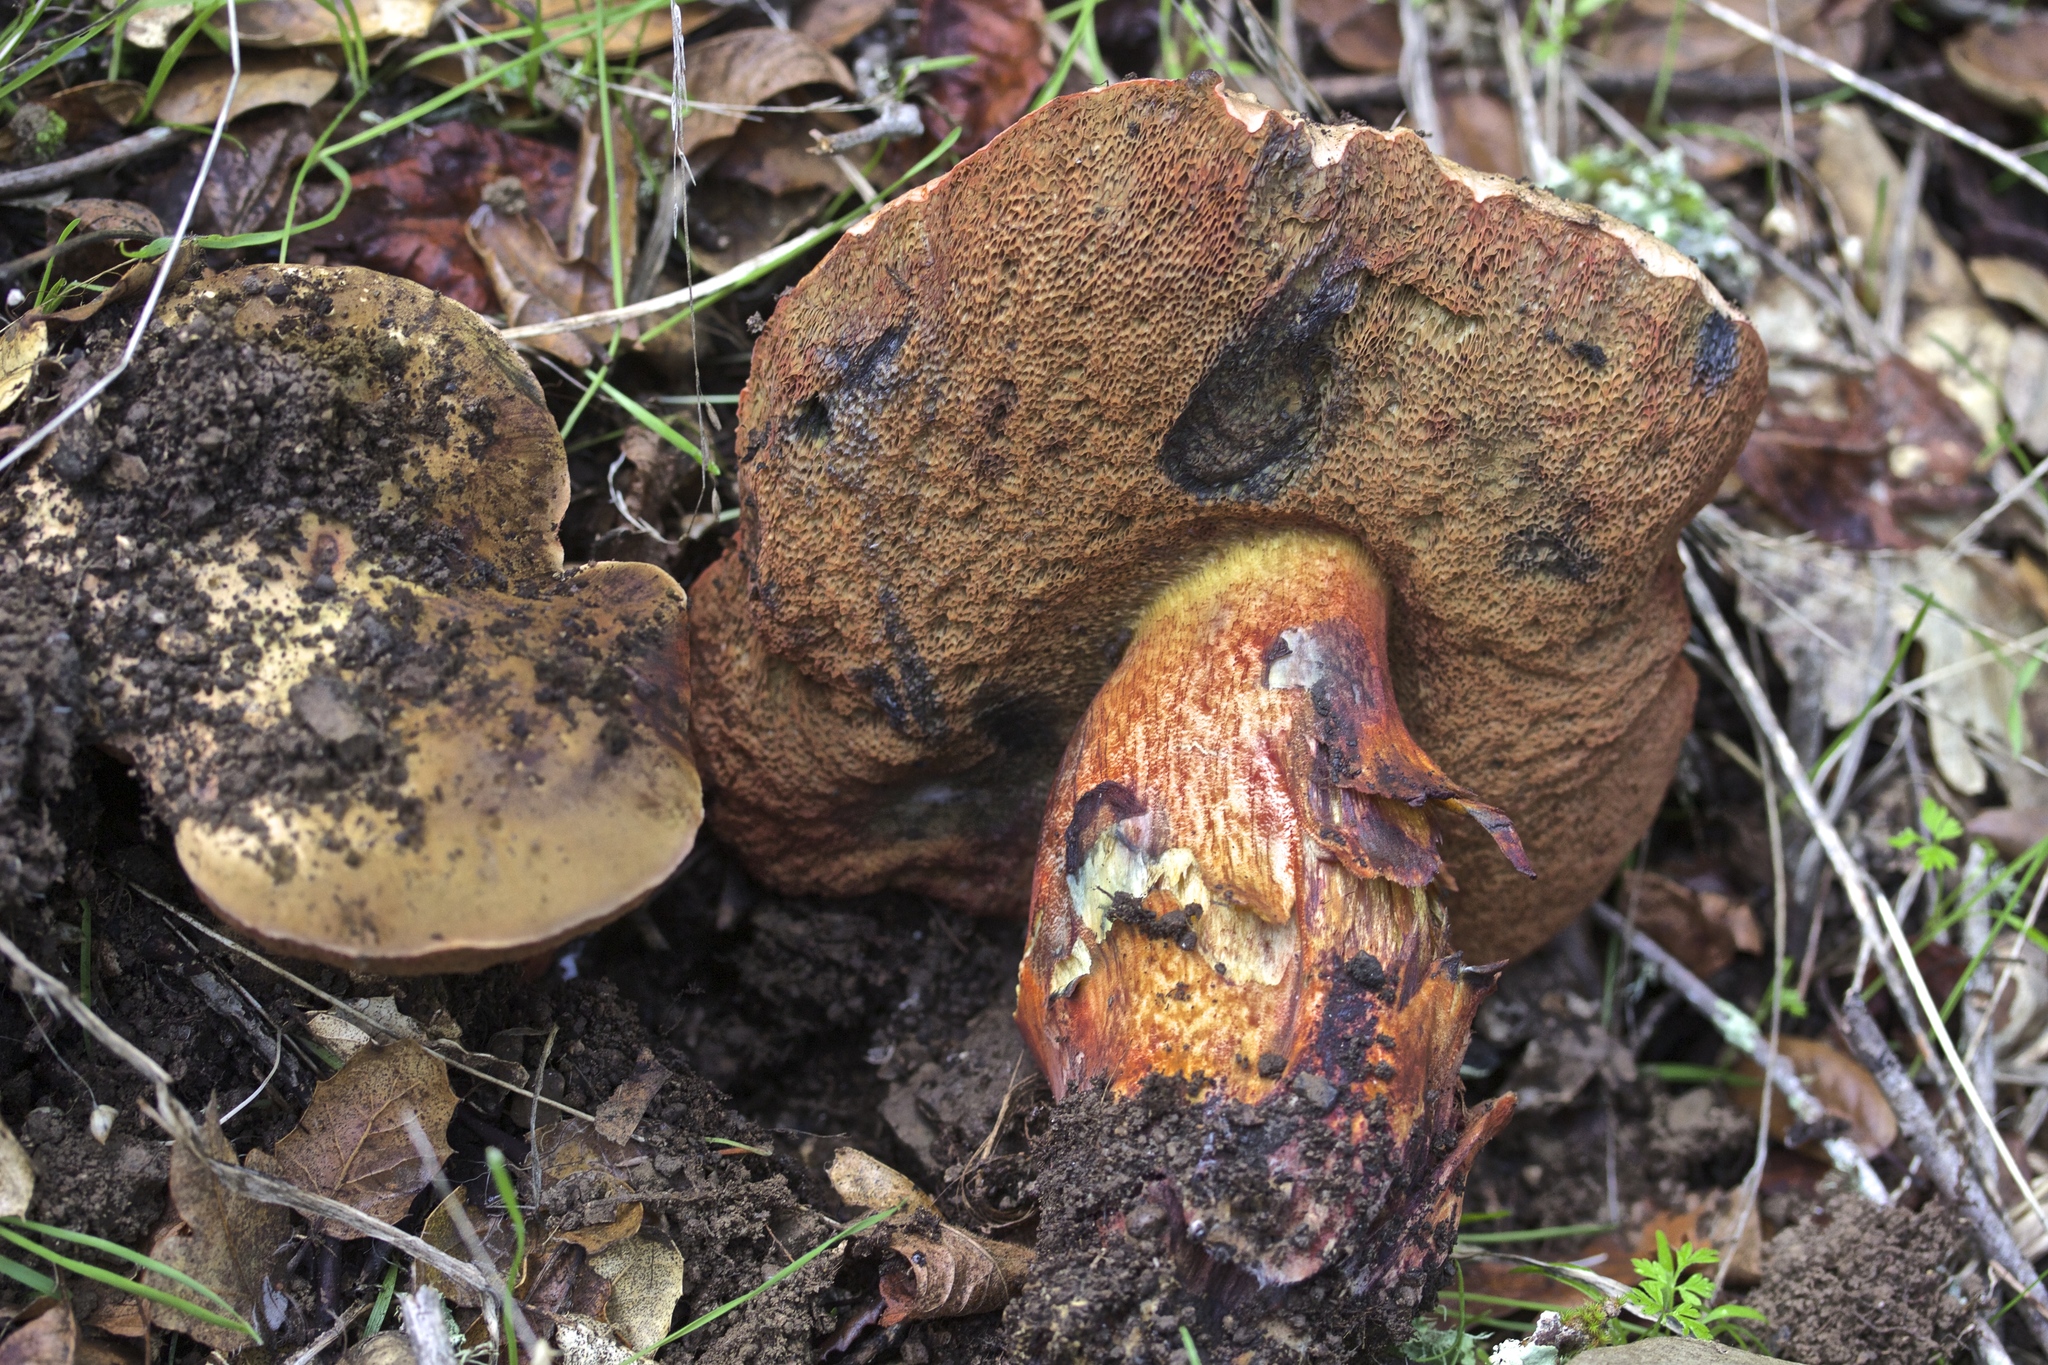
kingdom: Fungi
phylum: Basidiomycota
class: Agaricomycetes
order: Boletales
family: Boletaceae
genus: Suillellus
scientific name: Suillellus amygdalinus
